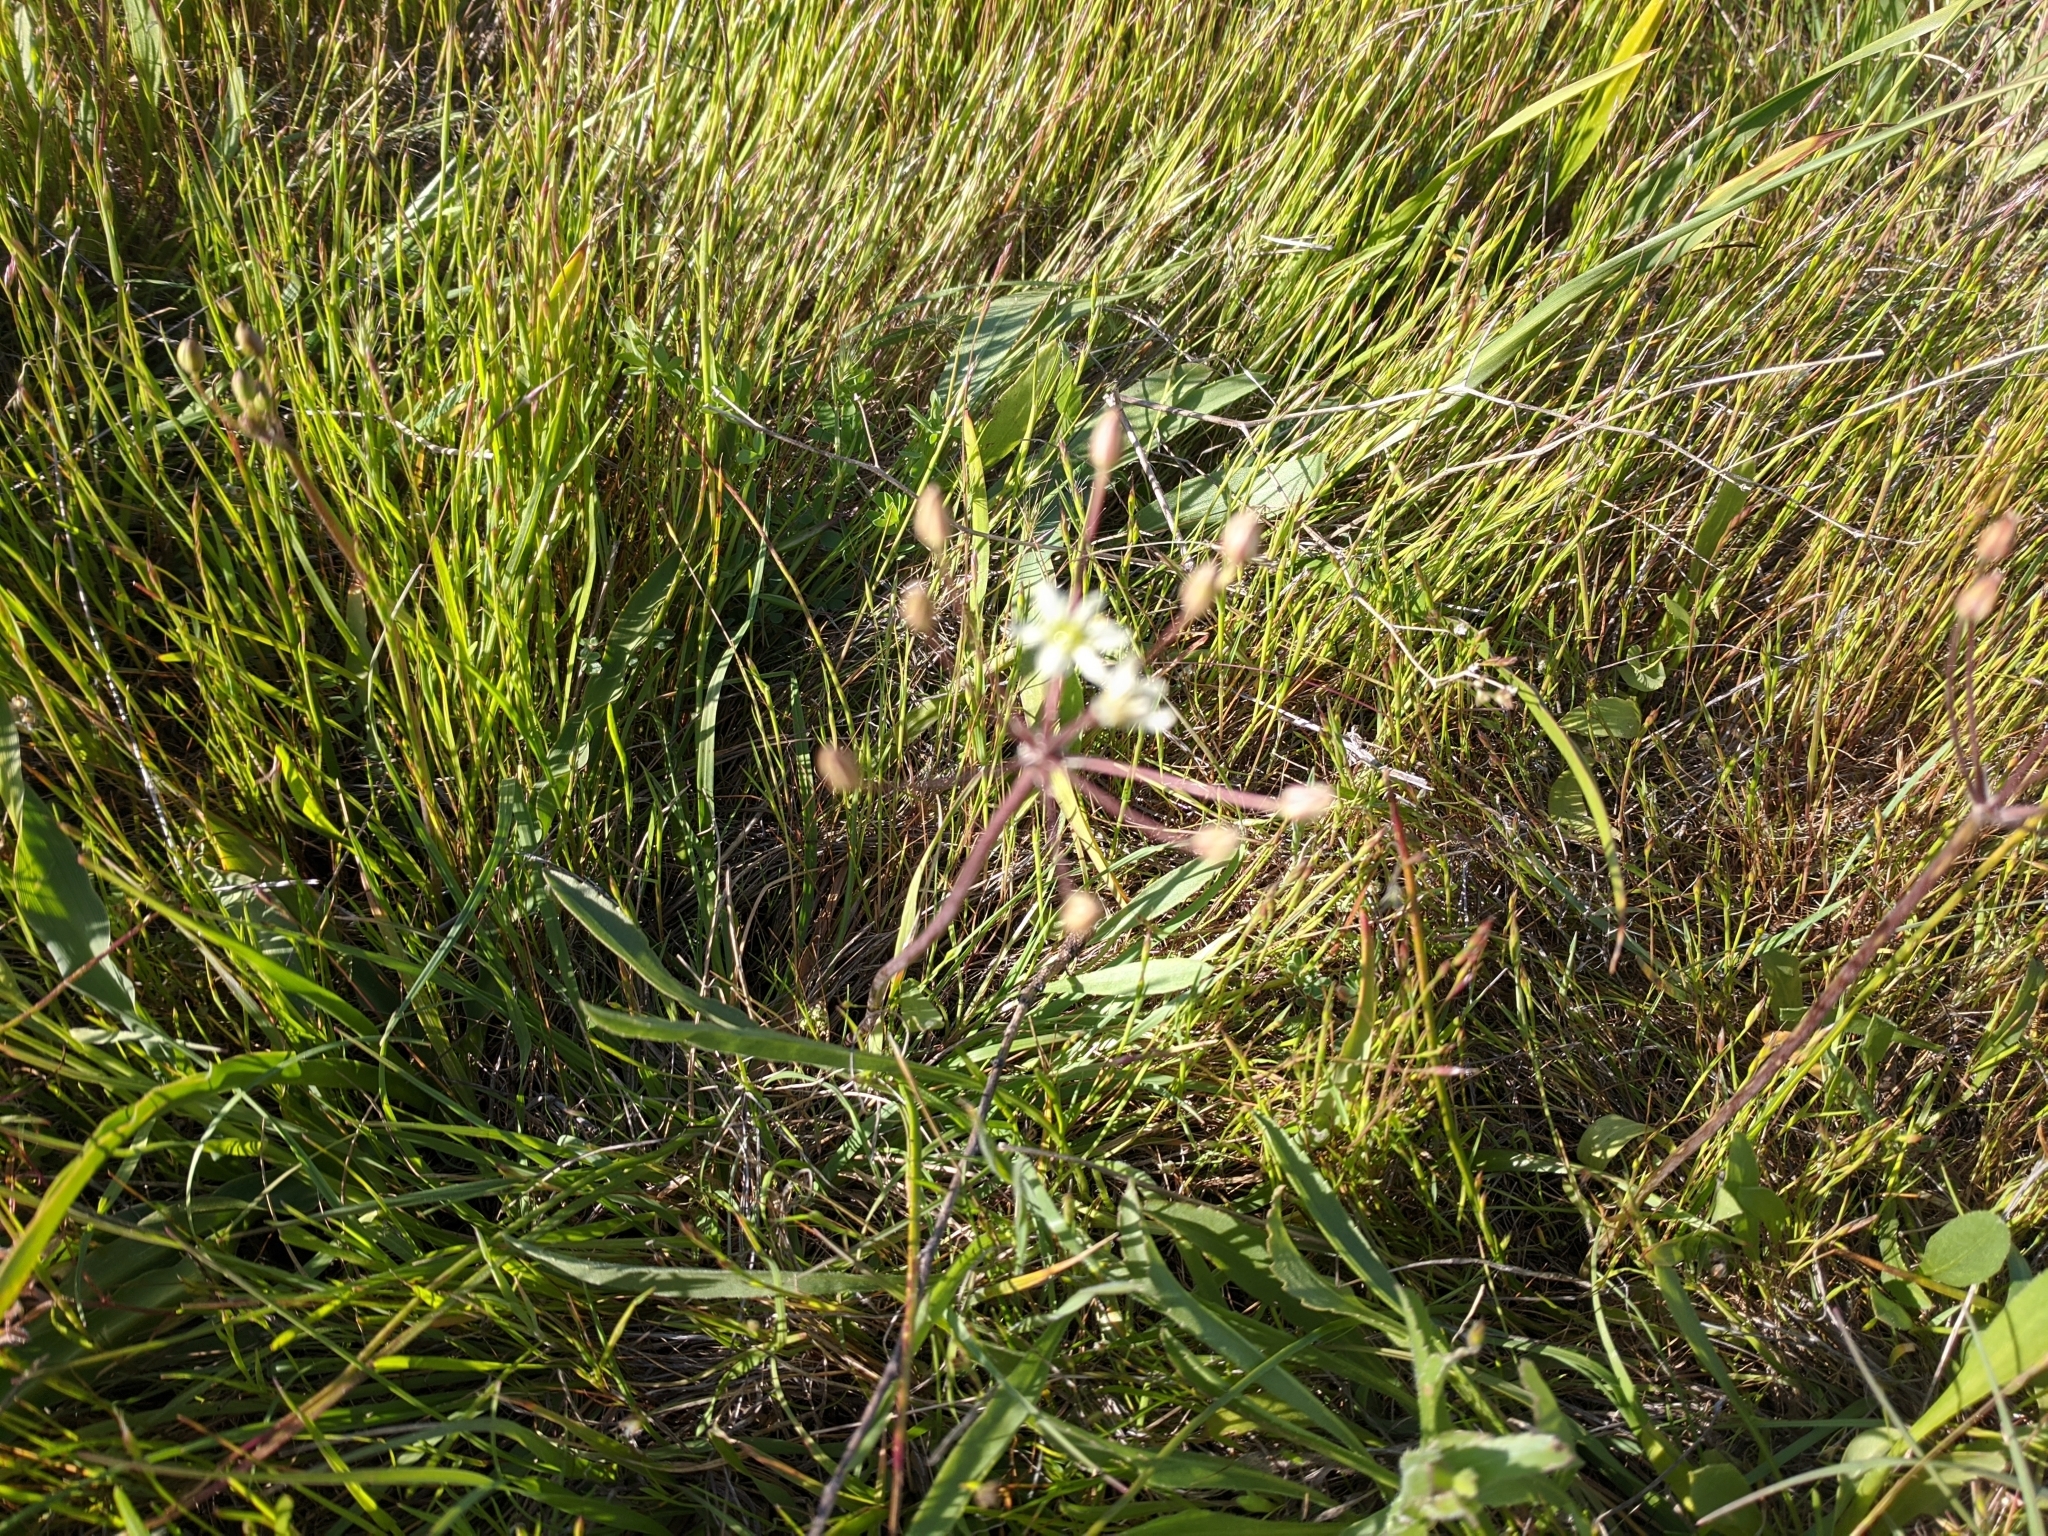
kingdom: Plantae
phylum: Tracheophyta
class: Liliopsida
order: Asparagales
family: Asparagaceae
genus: Muilla
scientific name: Muilla maritima
